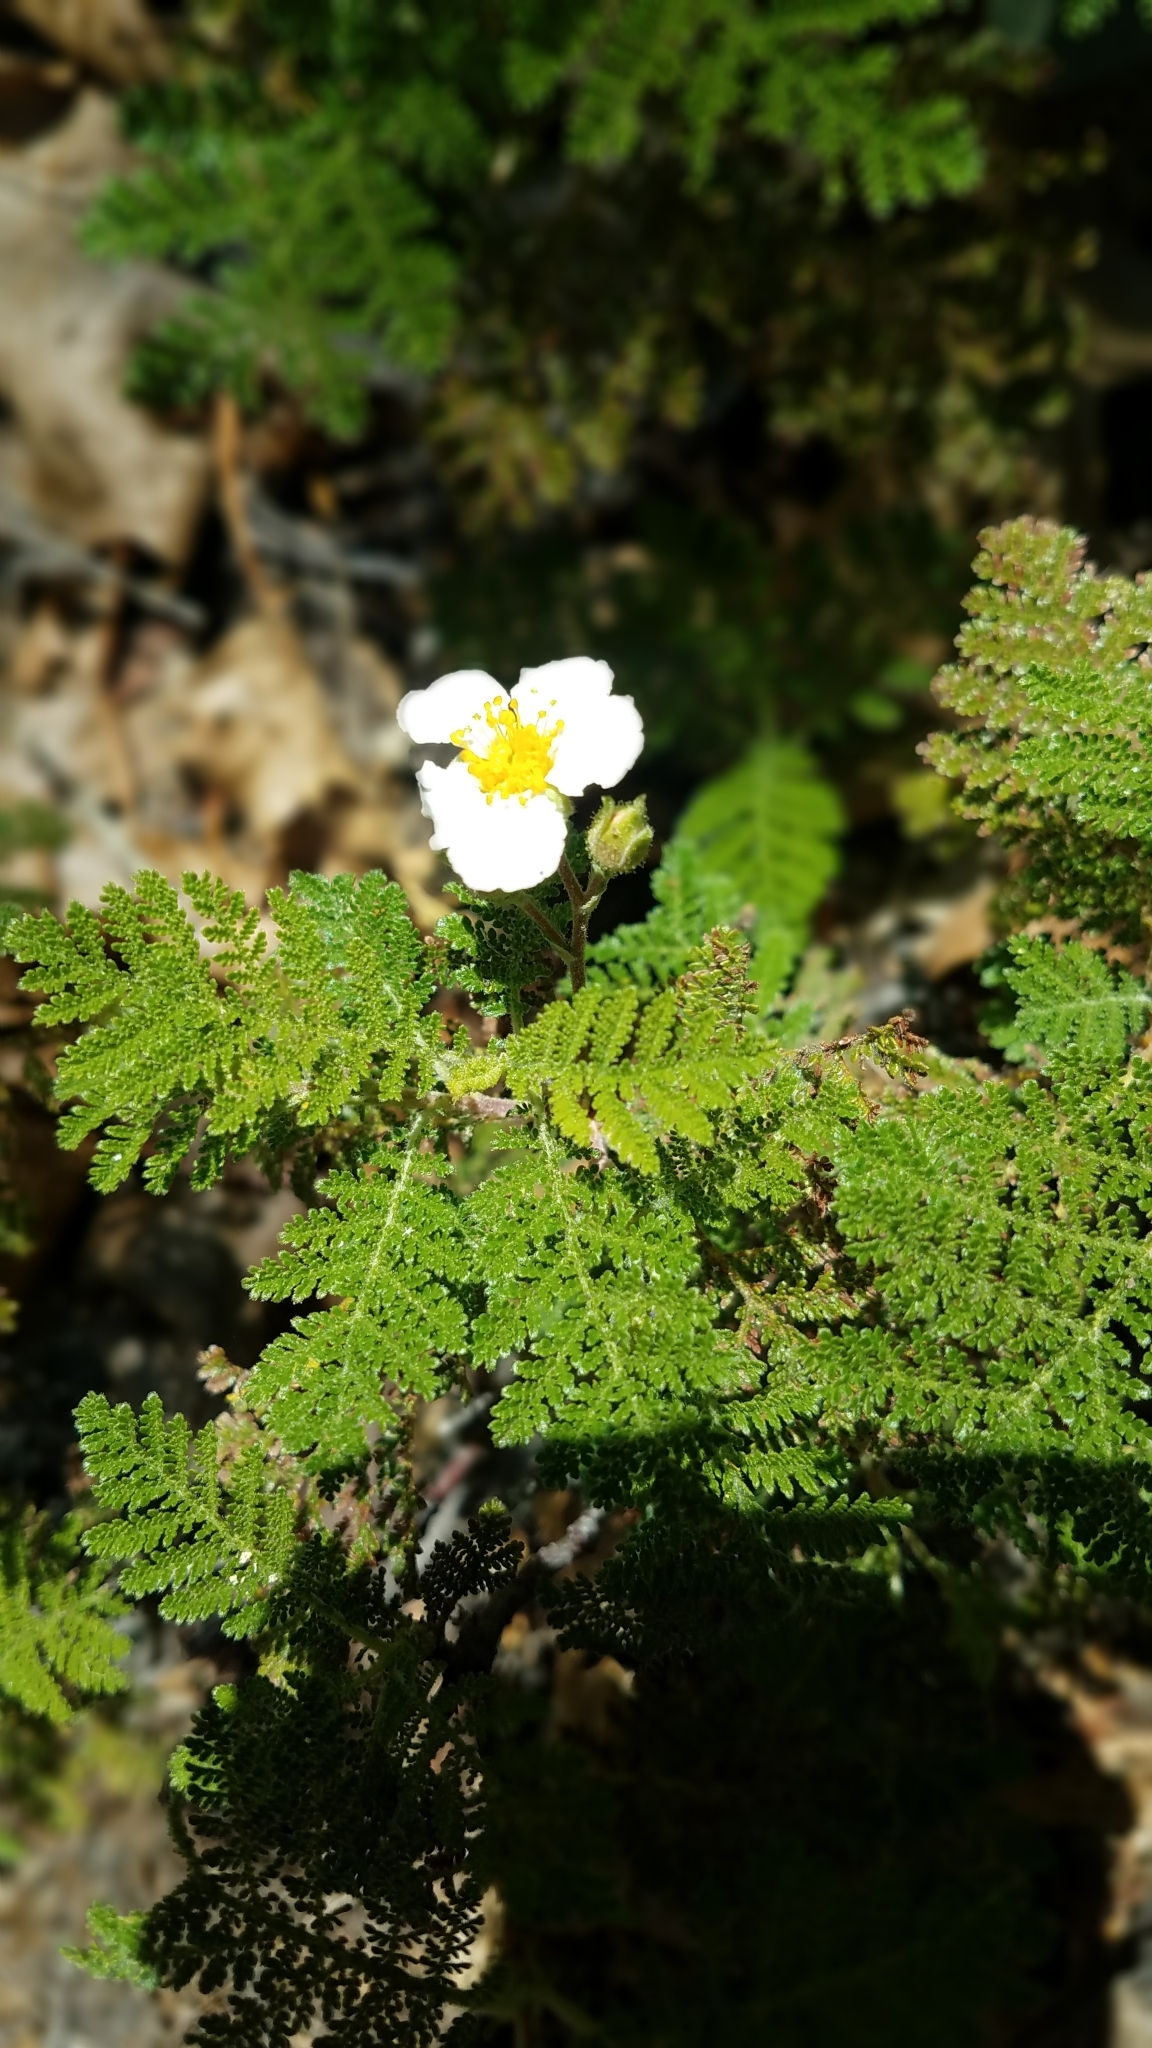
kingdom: Plantae
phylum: Tracheophyta
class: Magnoliopsida
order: Rosales
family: Rosaceae
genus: Chamaebatia
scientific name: Chamaebatia foliolosa
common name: Mountain misery
